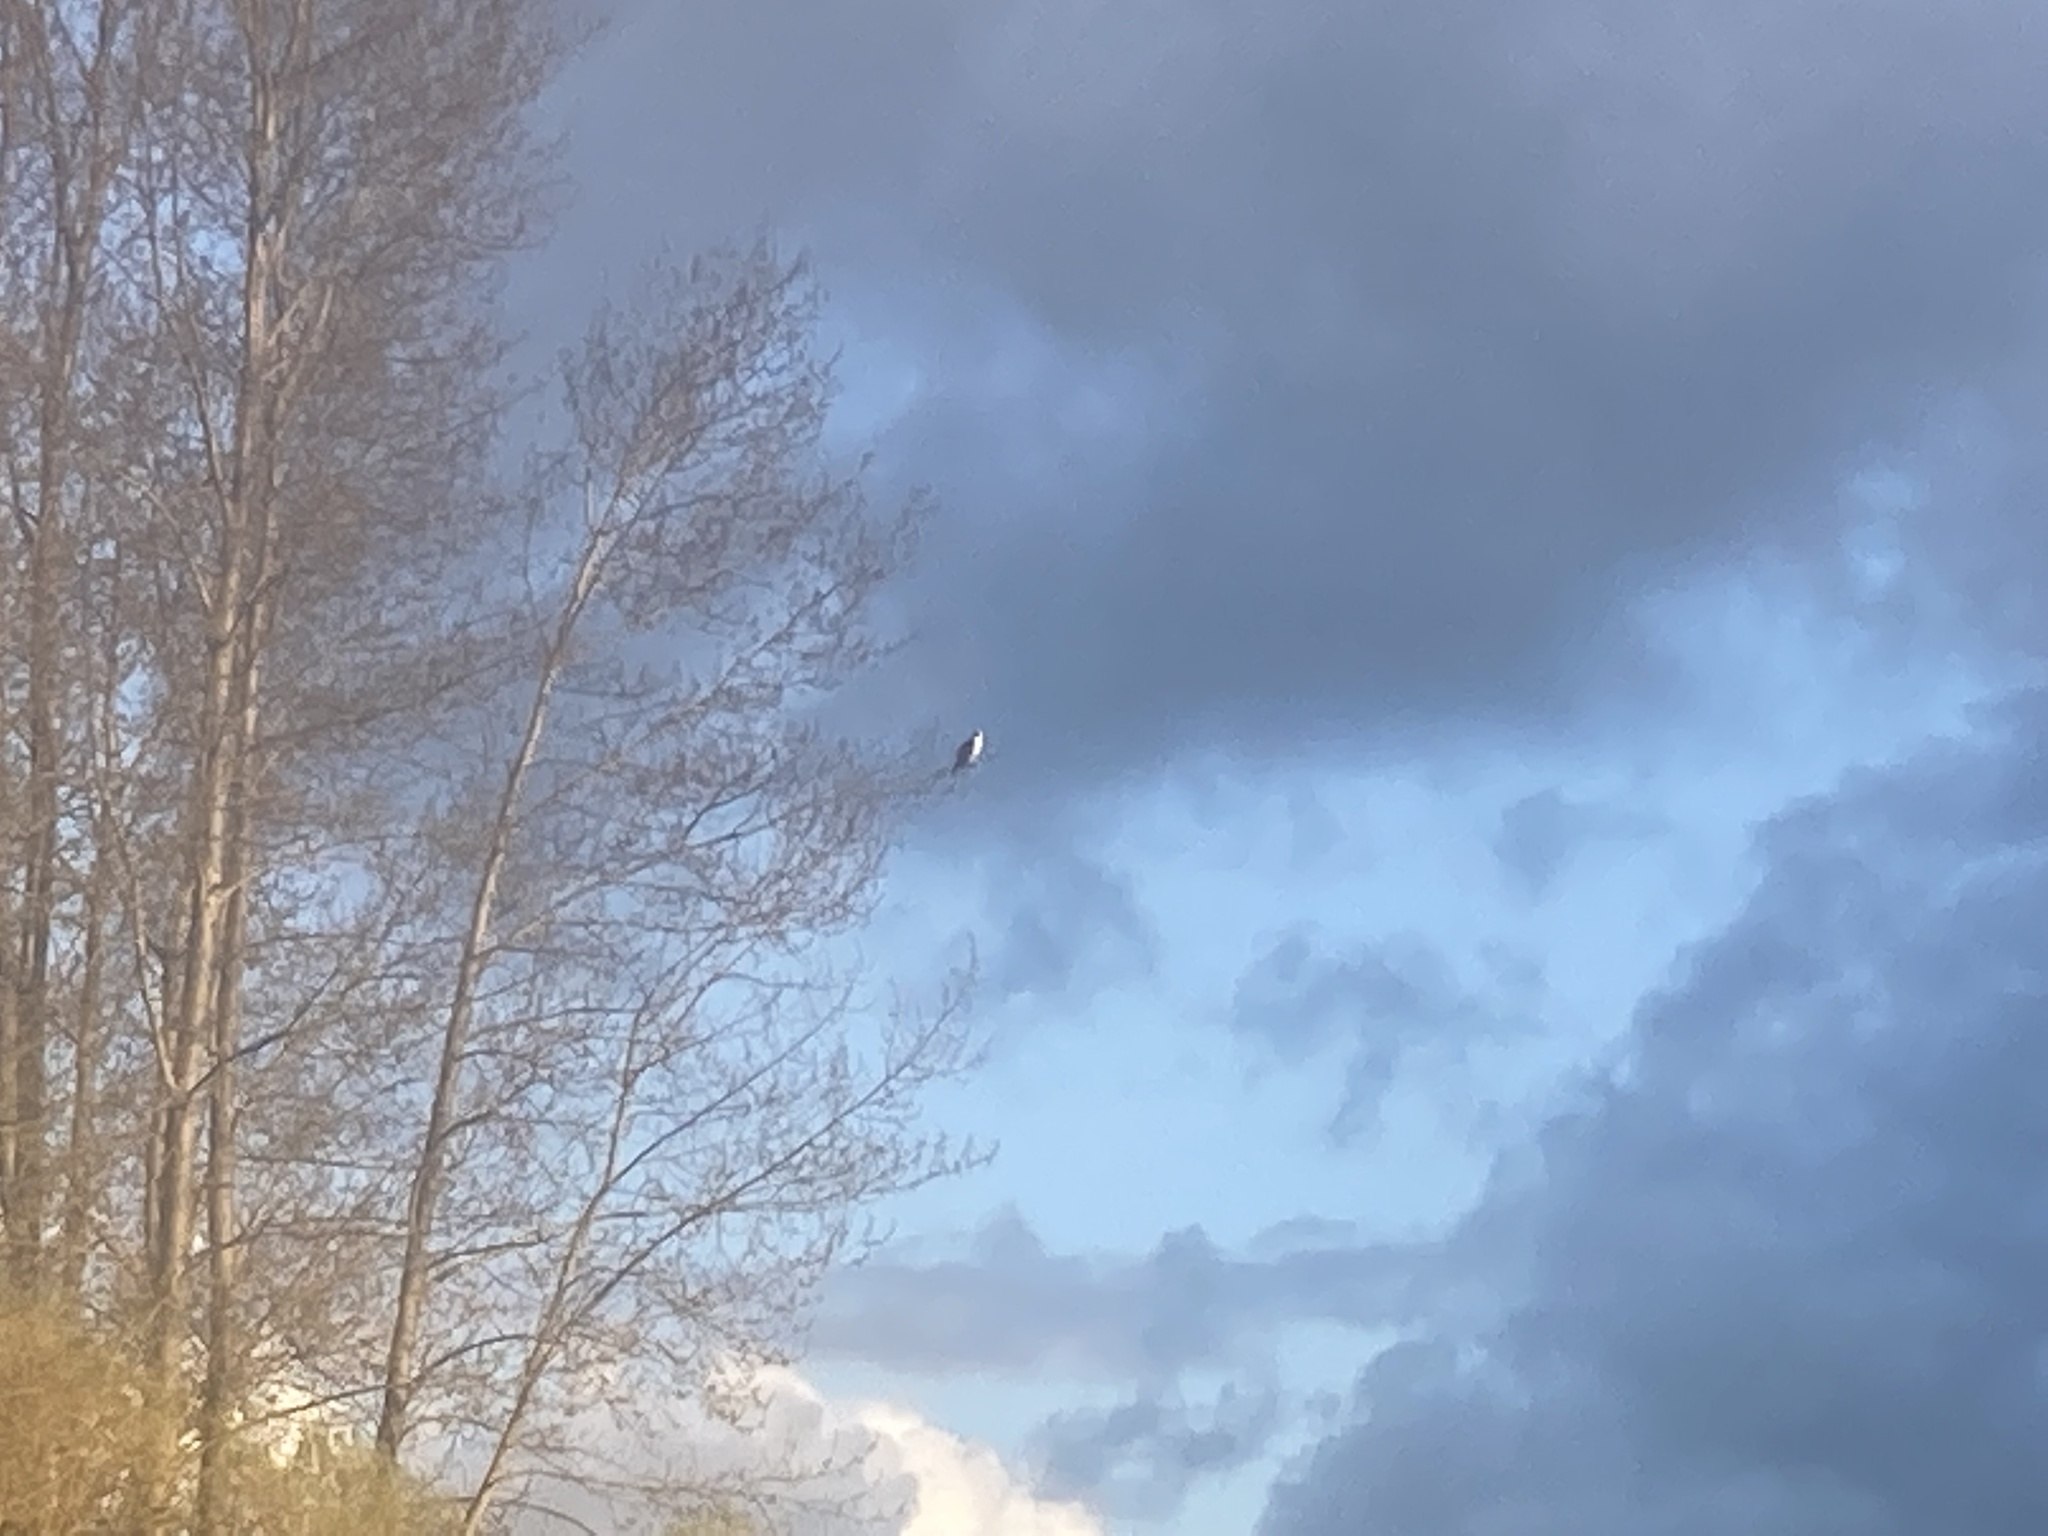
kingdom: Animalia
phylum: Chordata
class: Aves
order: Accipitriformes
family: Pandionidae
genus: Pandion
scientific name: Pandion haliaetus
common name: Osprey
